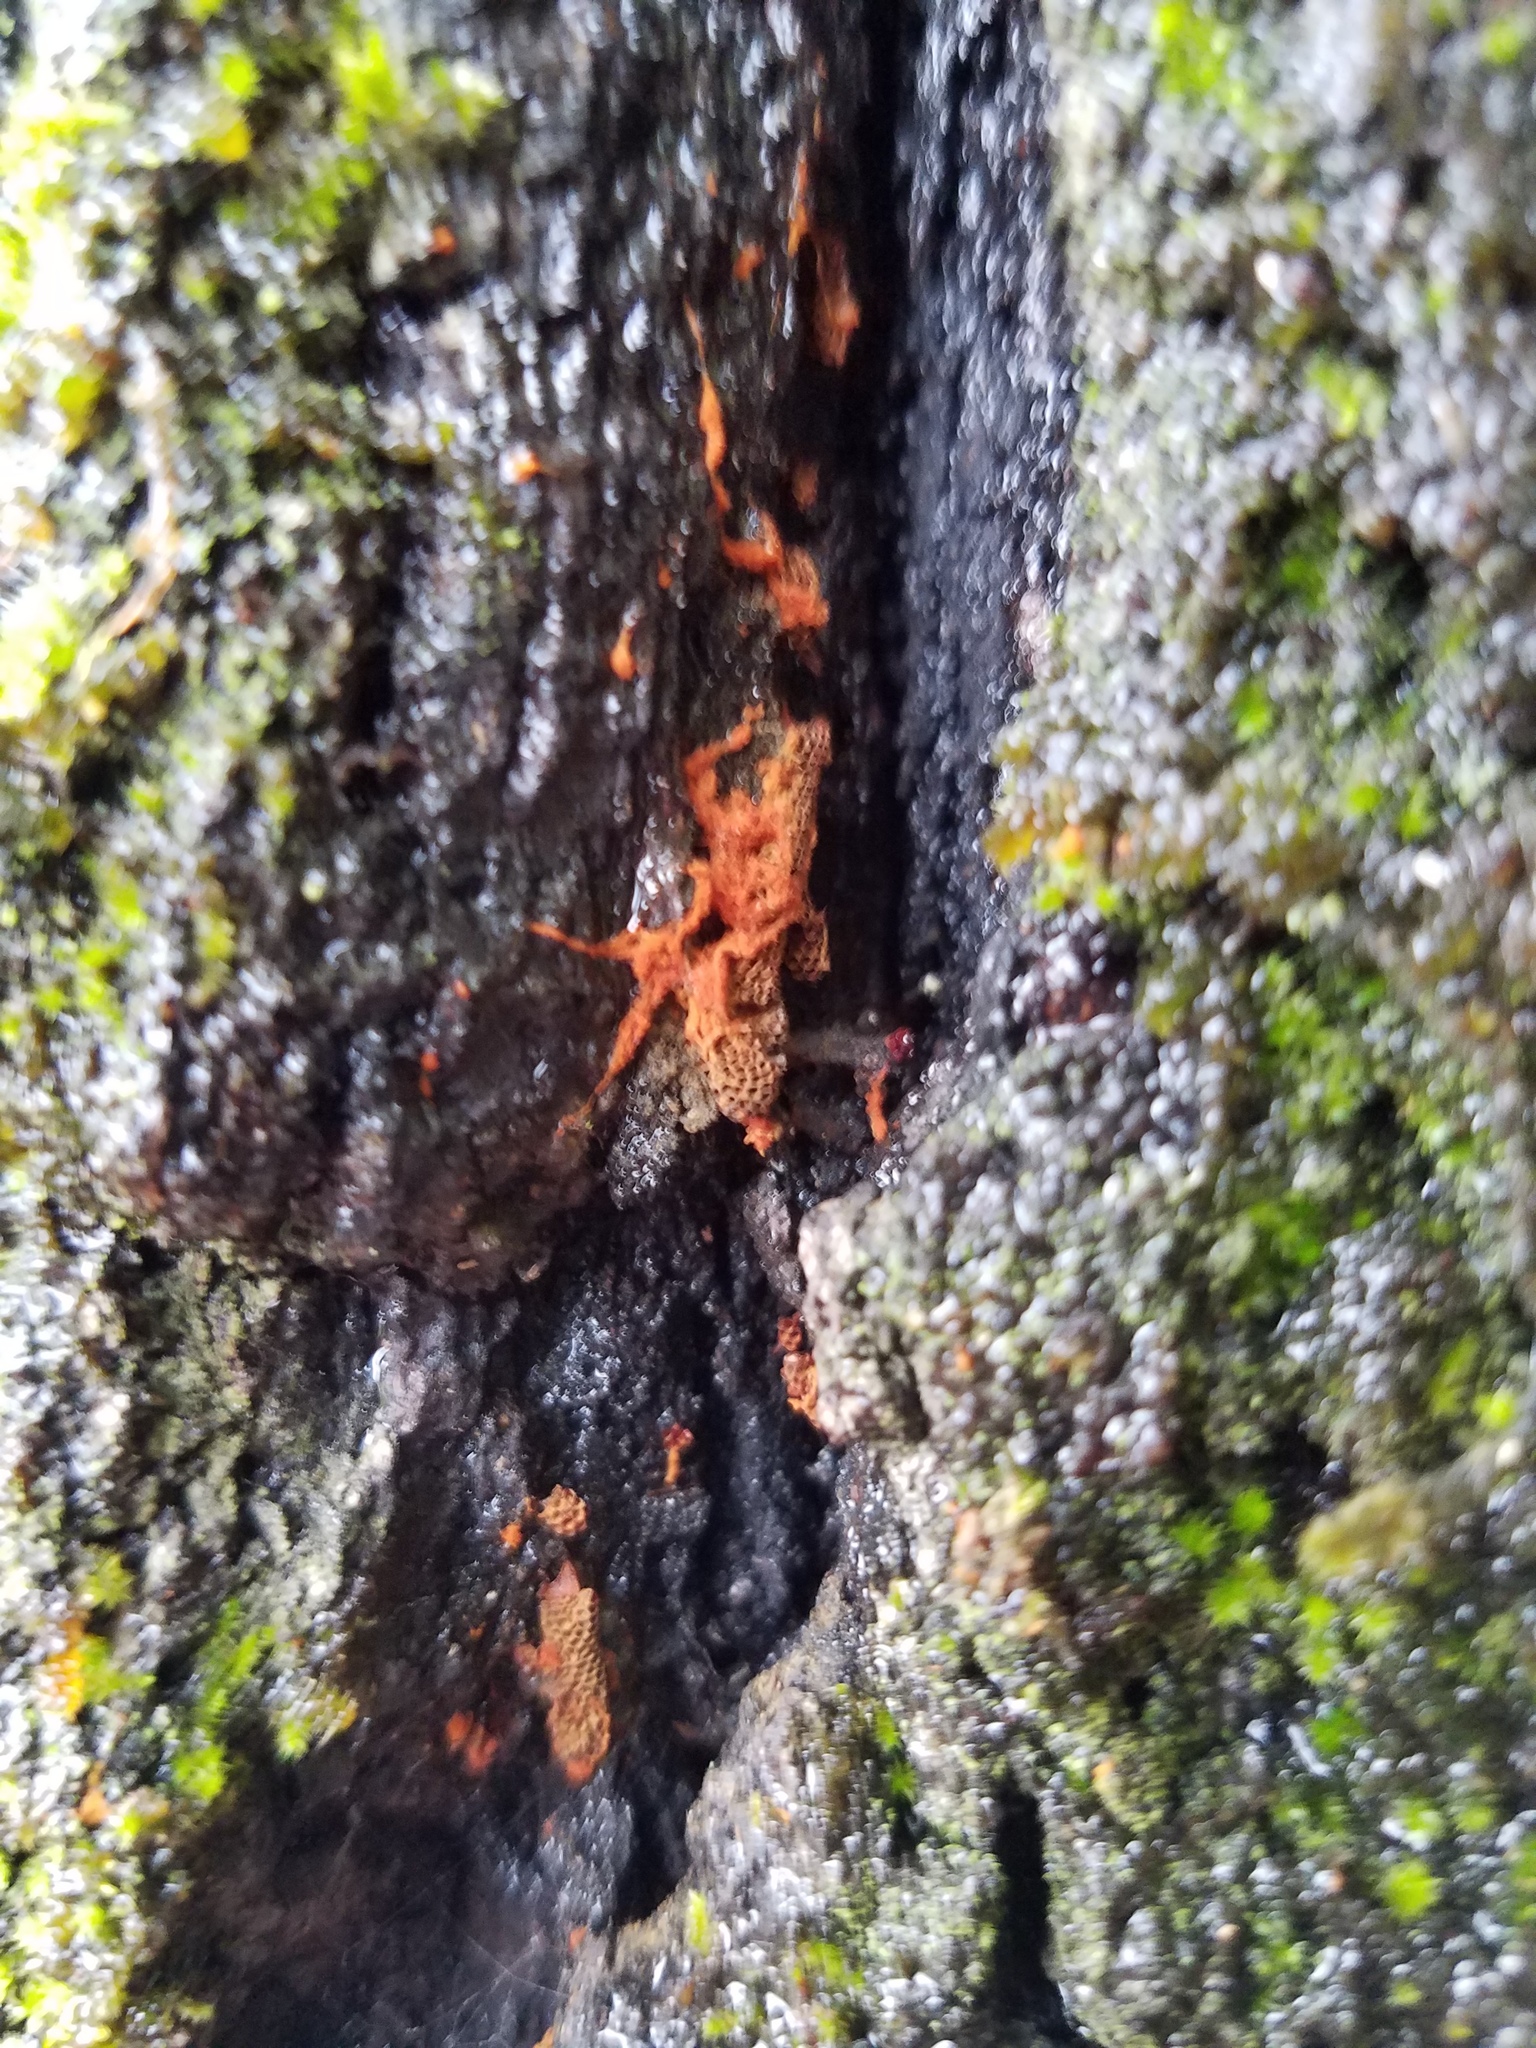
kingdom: Protozoa
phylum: Mycetozoa
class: Myxomycetes
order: Trichiales
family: Trichiaceae
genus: Metatrichia
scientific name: Metatrichia vesparia
